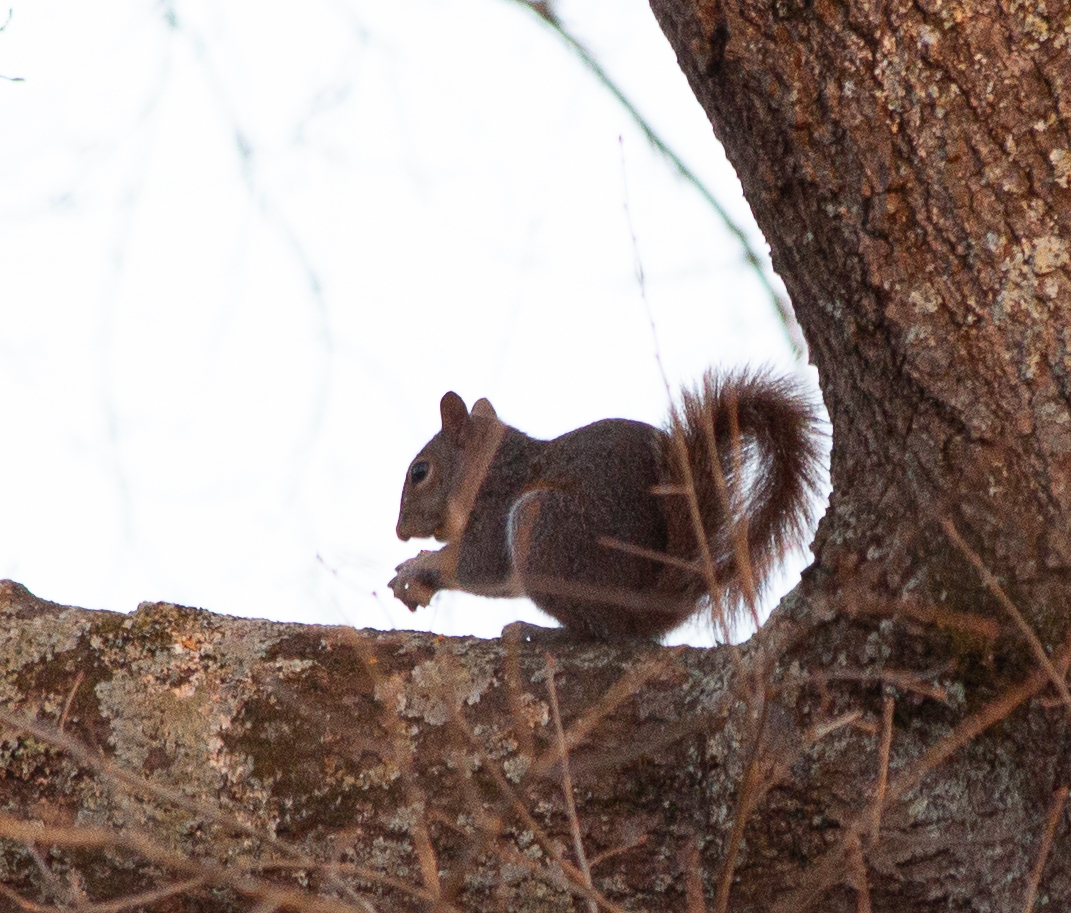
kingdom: Animalia
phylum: Chordata
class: Mammalia
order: Rodentia
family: Sciuridae
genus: Sciurus
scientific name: Sciurus carolinensis
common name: Eastern gray squirrel
